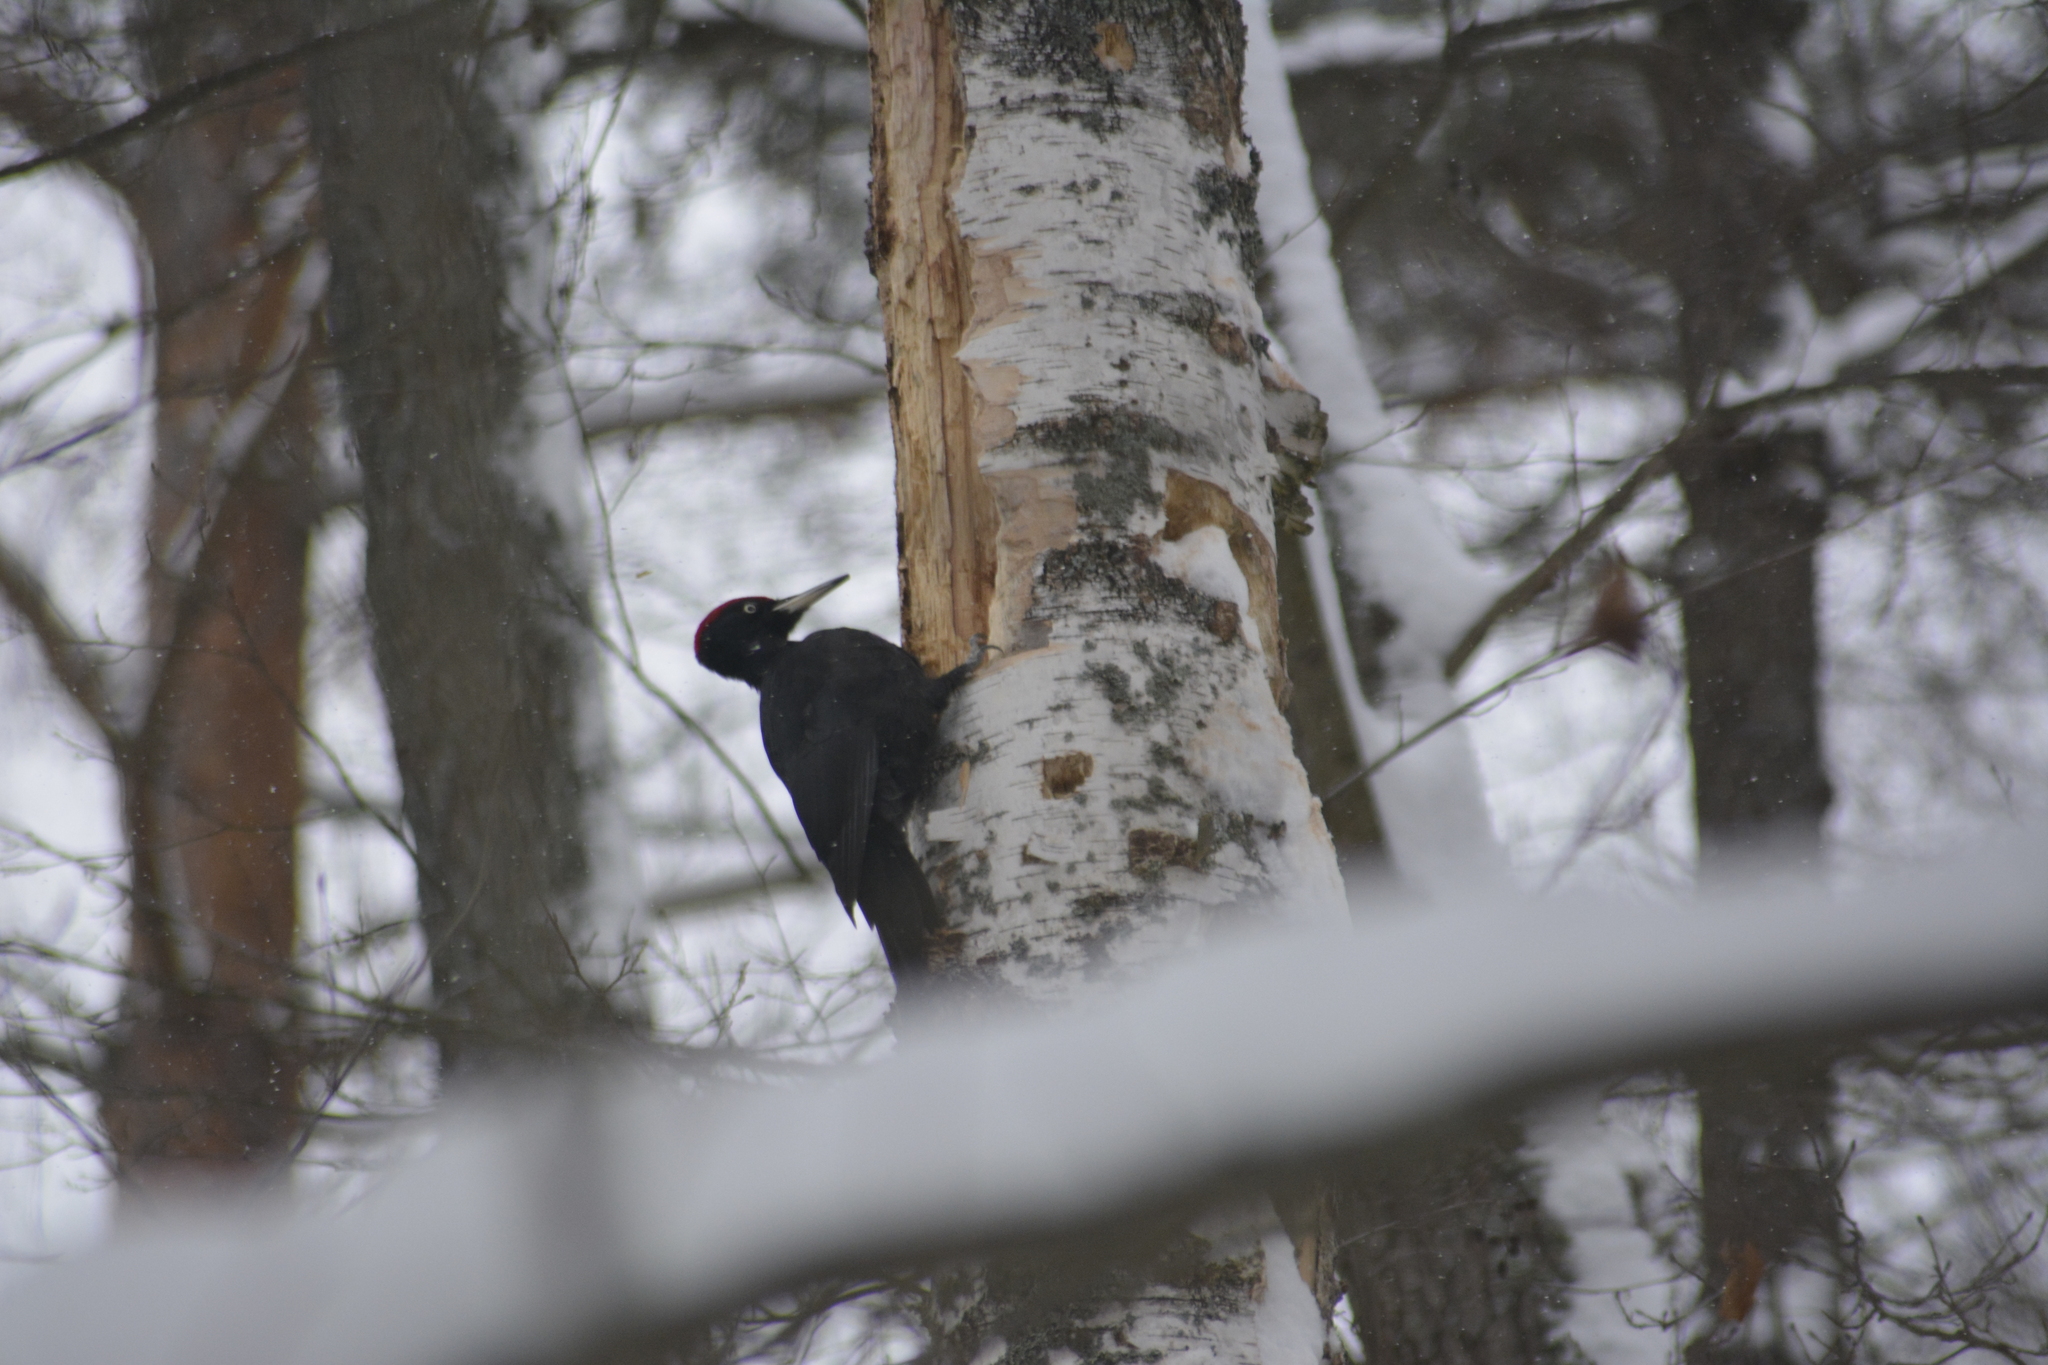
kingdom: Animalia
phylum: Chordata
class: Aves
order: Piciformes
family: Picidae
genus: Dryocopus
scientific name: Dryocopus martius
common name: Black woodpecker
